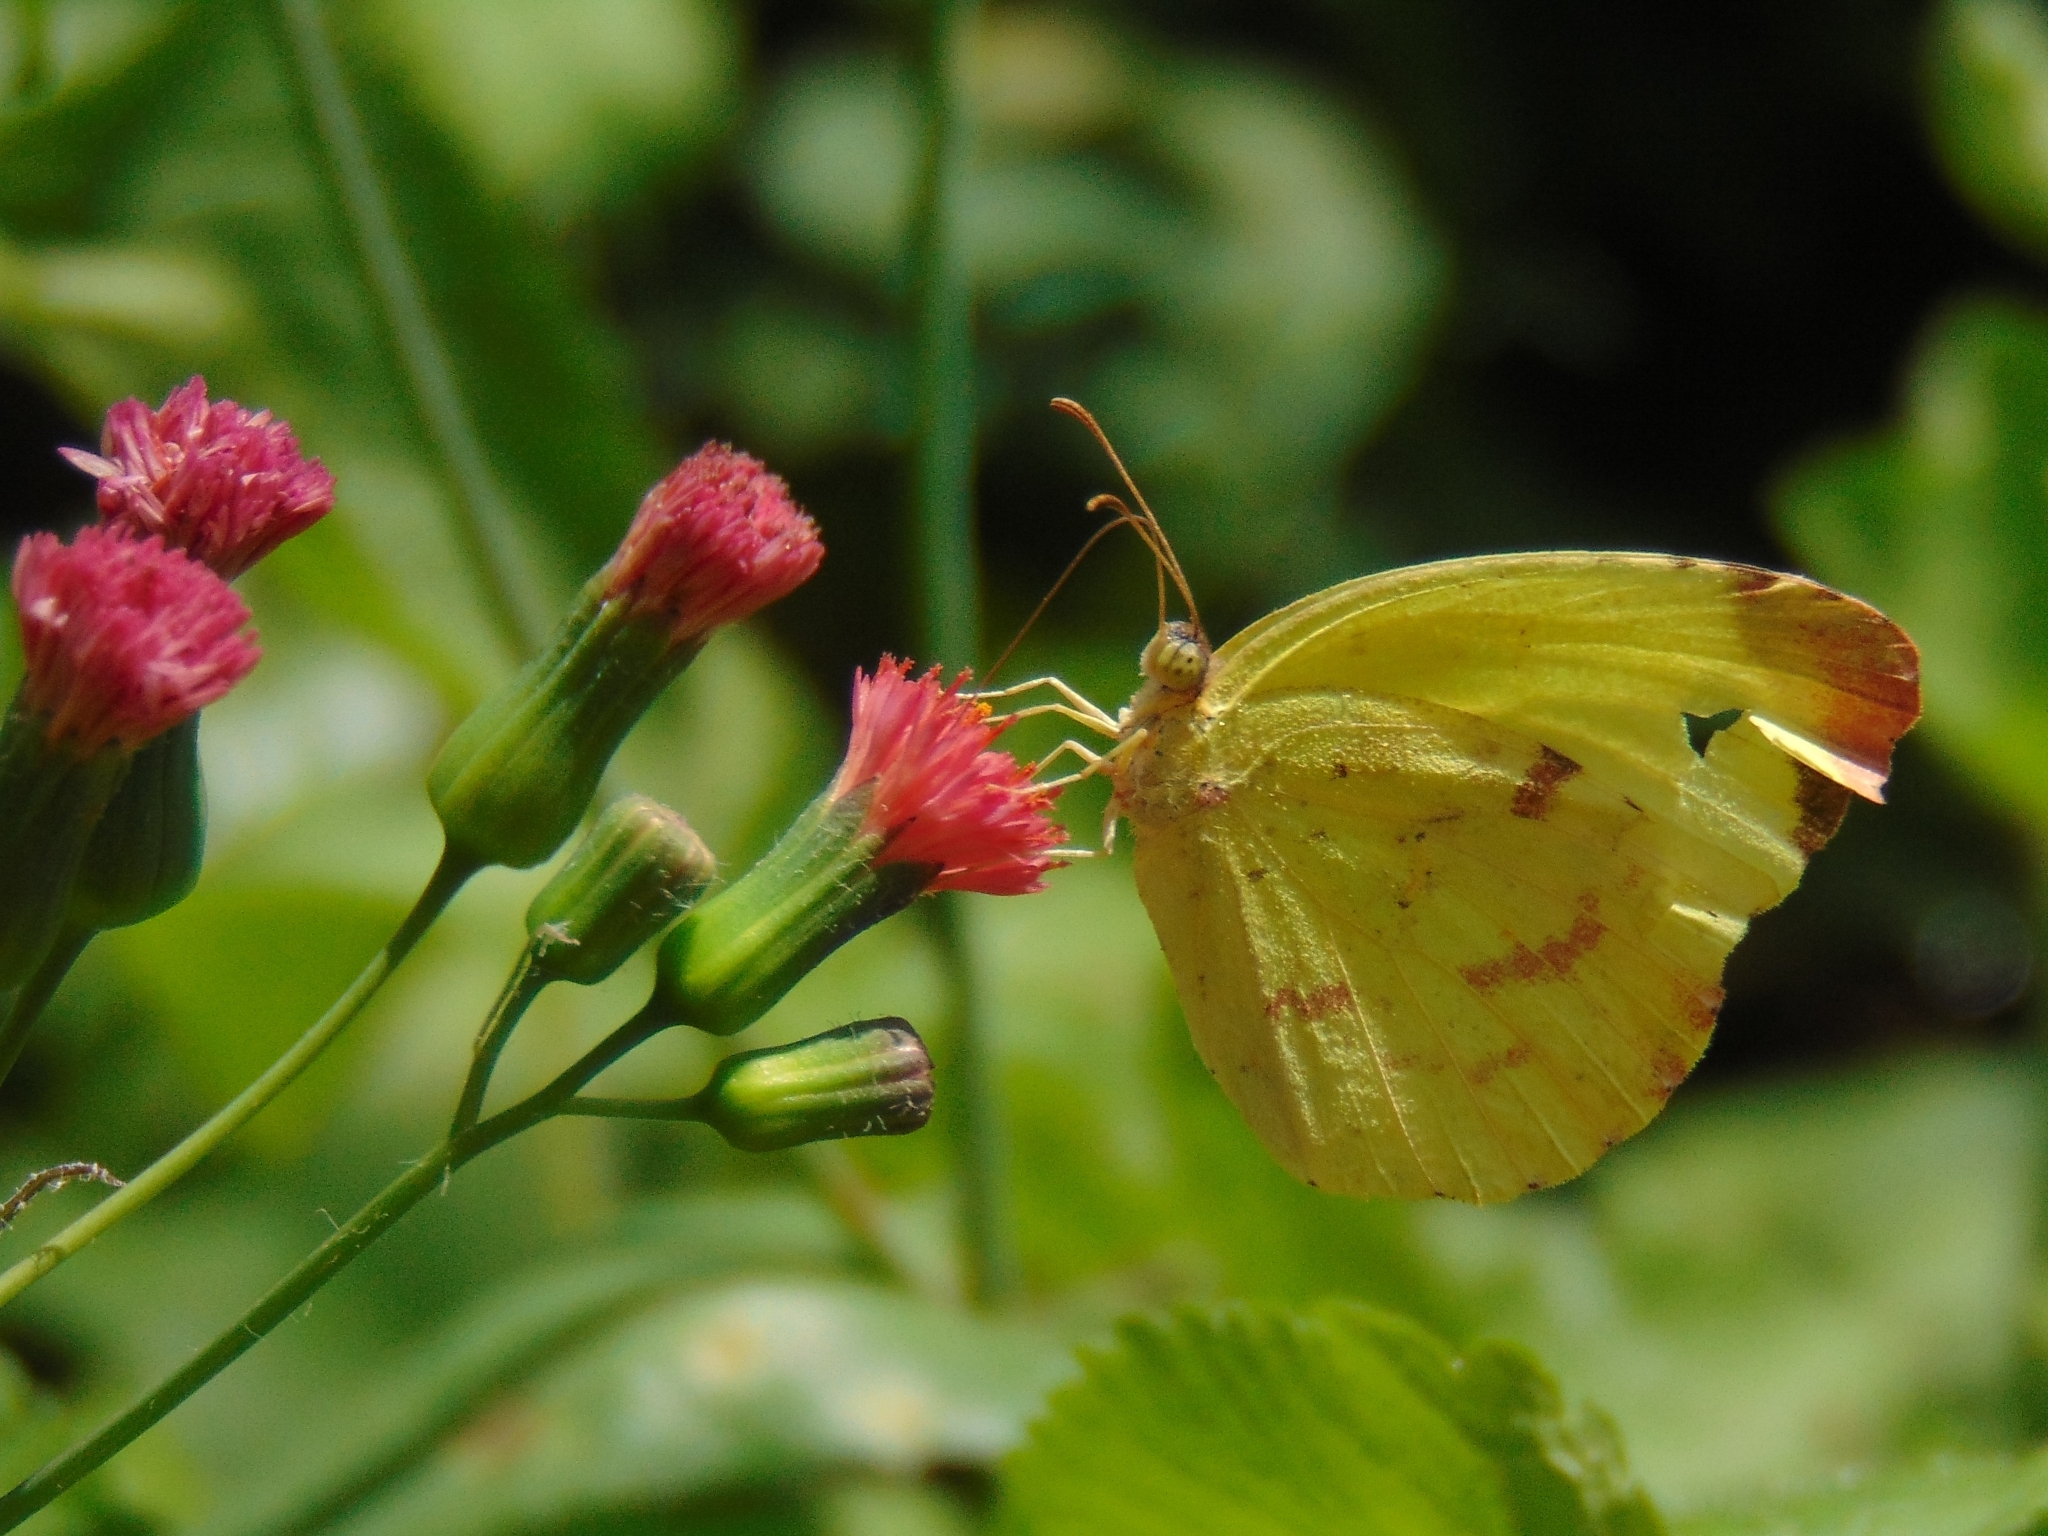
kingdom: Animalia
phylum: Arthropoda
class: Insecta
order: Lepidoptera
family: Pieridae
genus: Teriocolias
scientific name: Teriocolias
